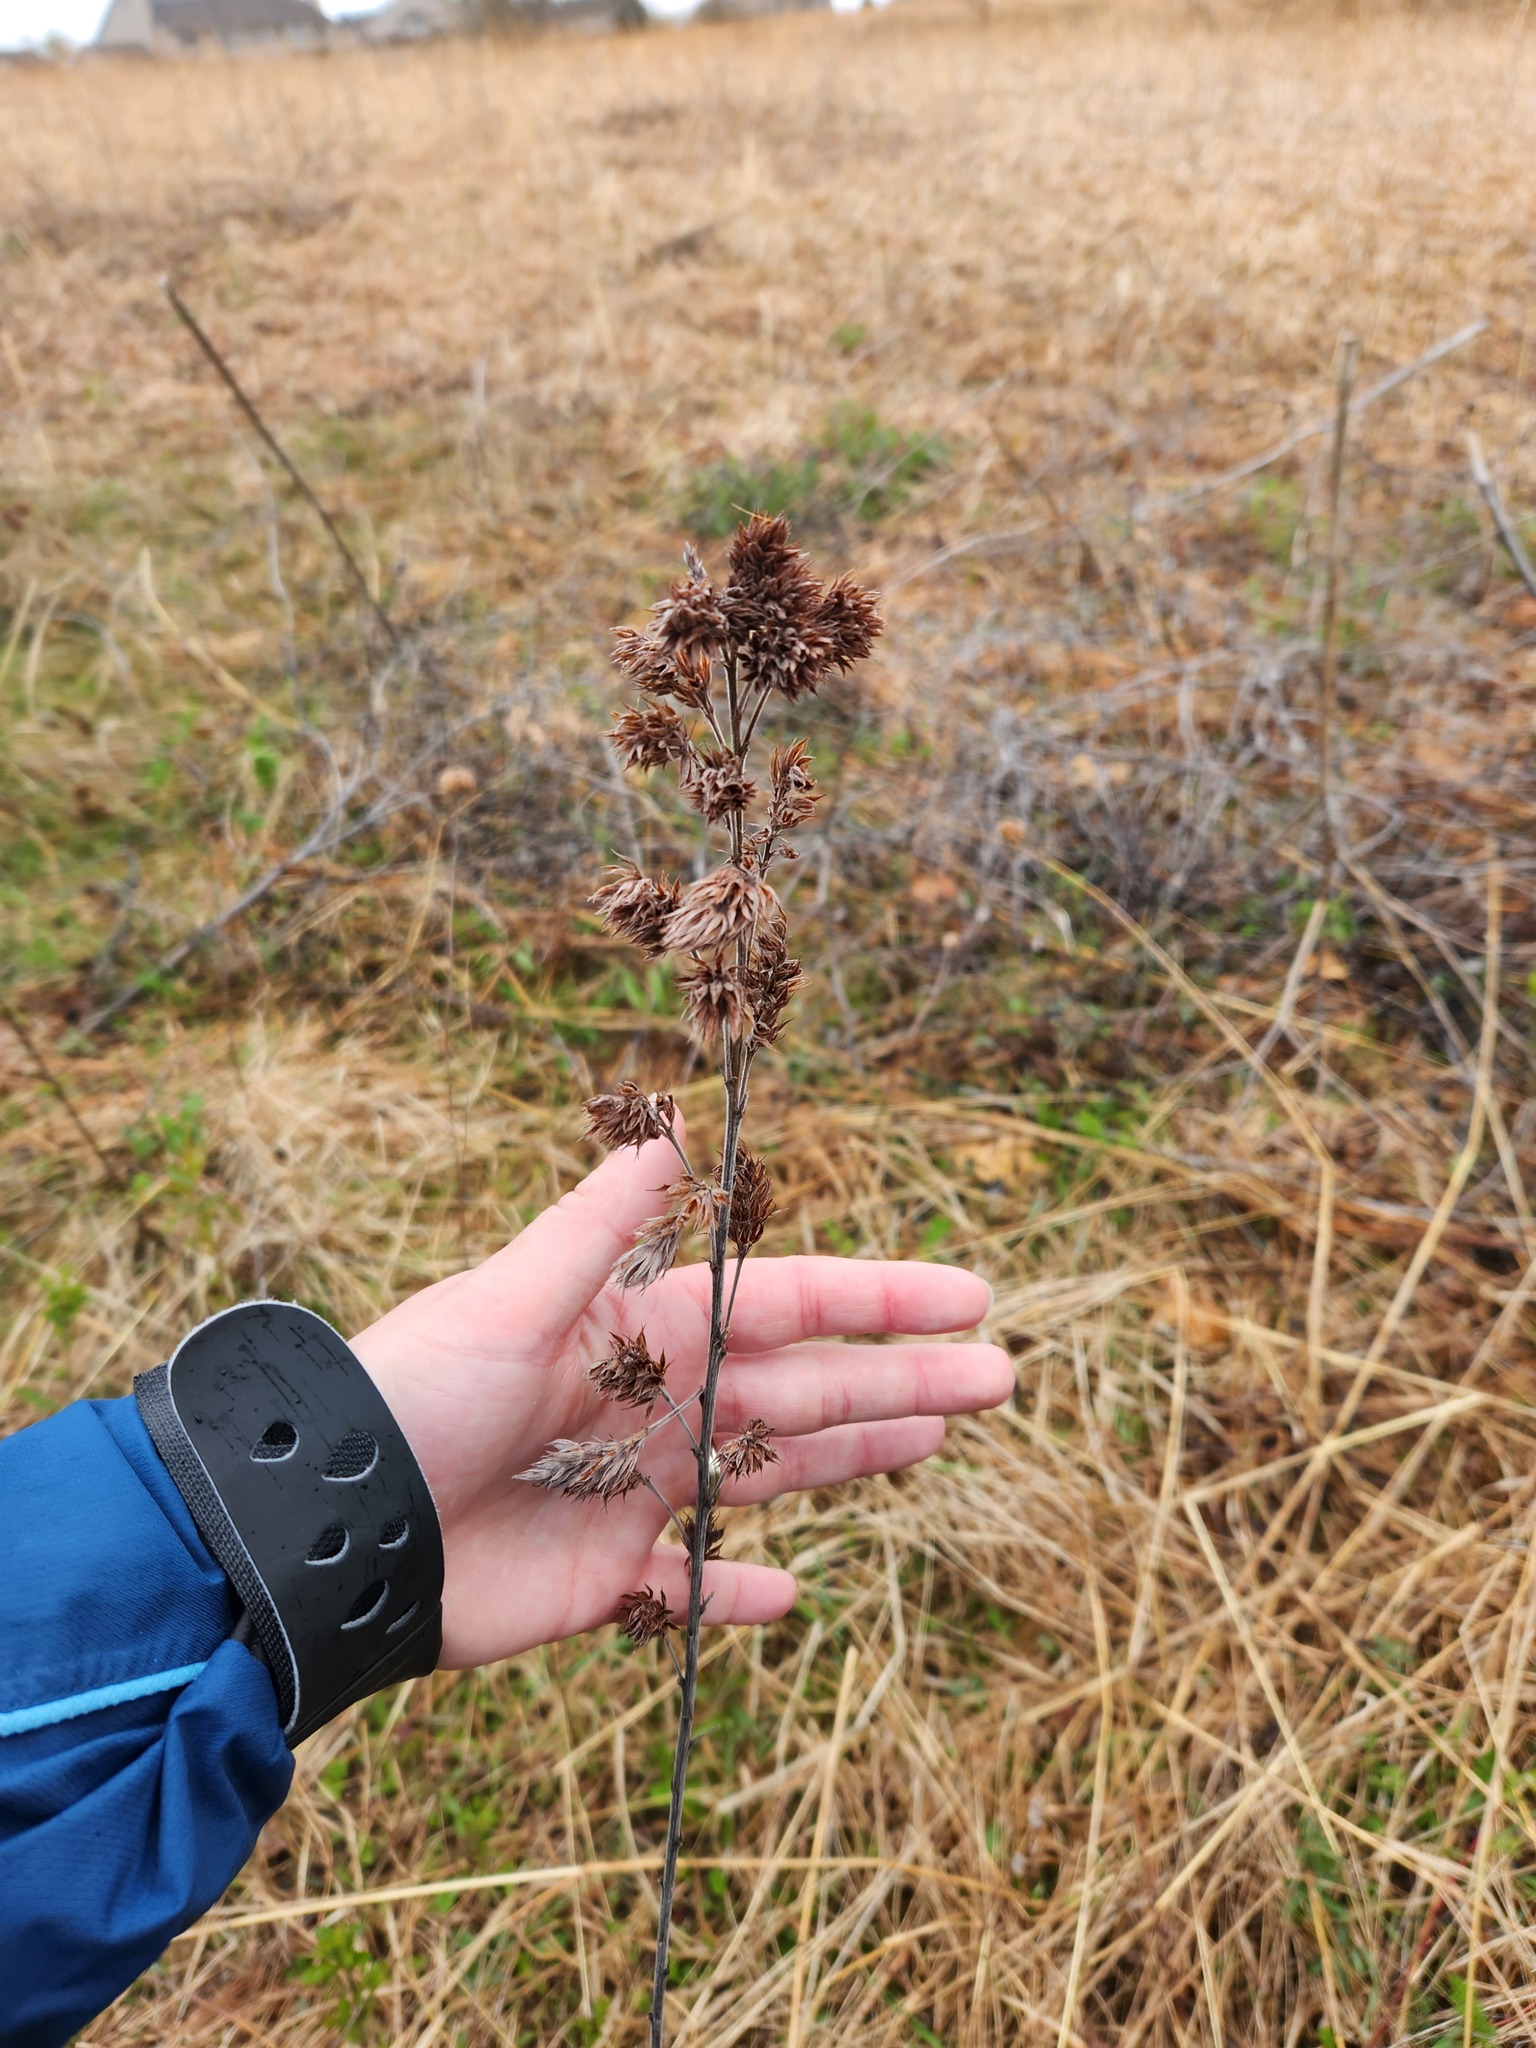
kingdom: Plantae
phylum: Tracheophyta
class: Magnoliopsida
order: Fabales
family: Fabaceae
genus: Lespedeza
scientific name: Lespedeza capitata
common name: Dusty clover
